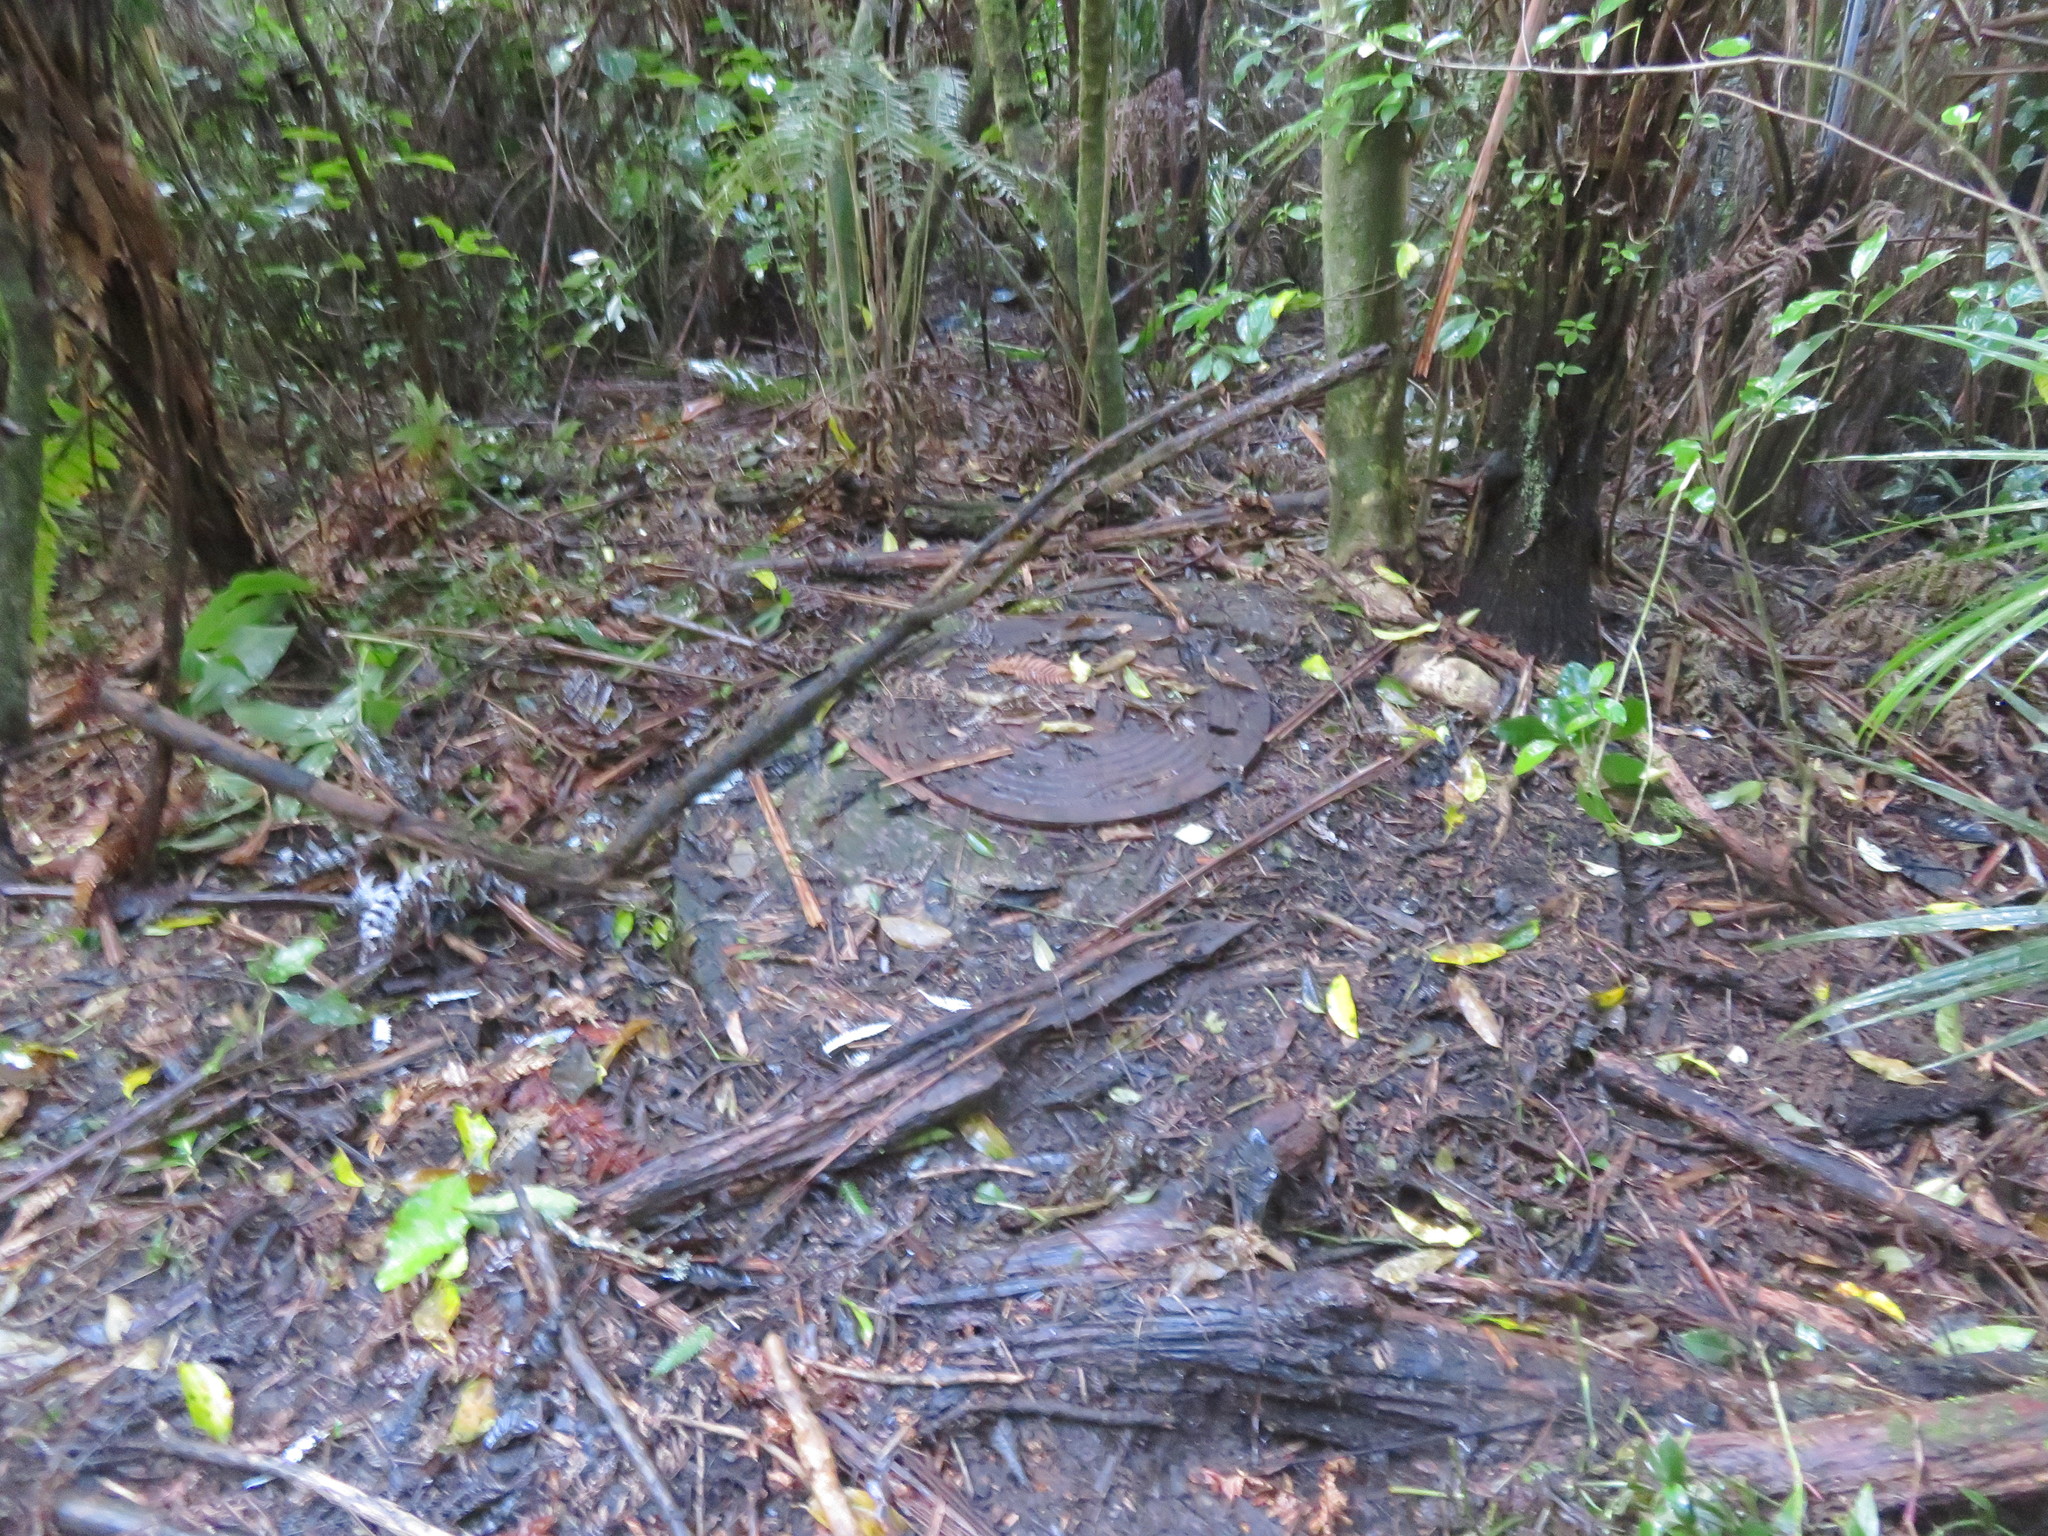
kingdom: Plantae
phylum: Tracheophyta
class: Polypodiopsida
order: Cyatheales
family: Cyatheaceae
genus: Alsophila
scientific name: Alsophila dealbata
